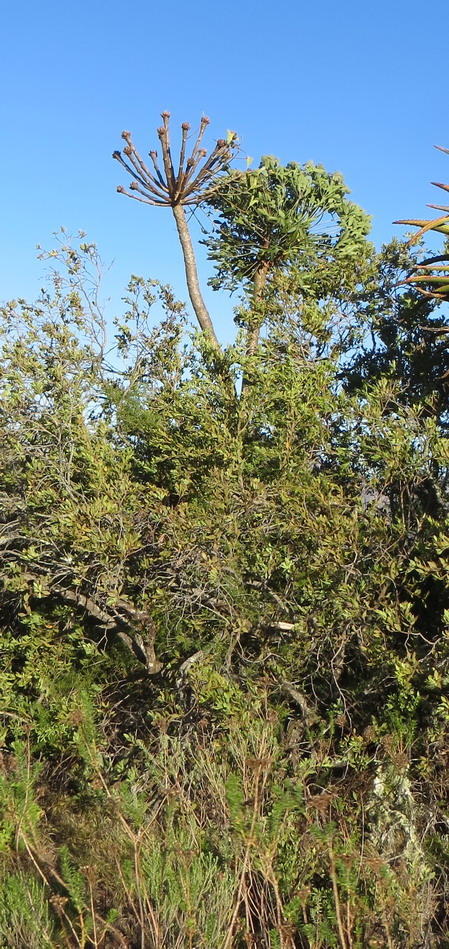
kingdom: Plantae
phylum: Tracheophyta
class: Magnoliopsida
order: Apiales
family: Araliaceae
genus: Cussonia
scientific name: Cussonia spicata
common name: Common cabbagetree
